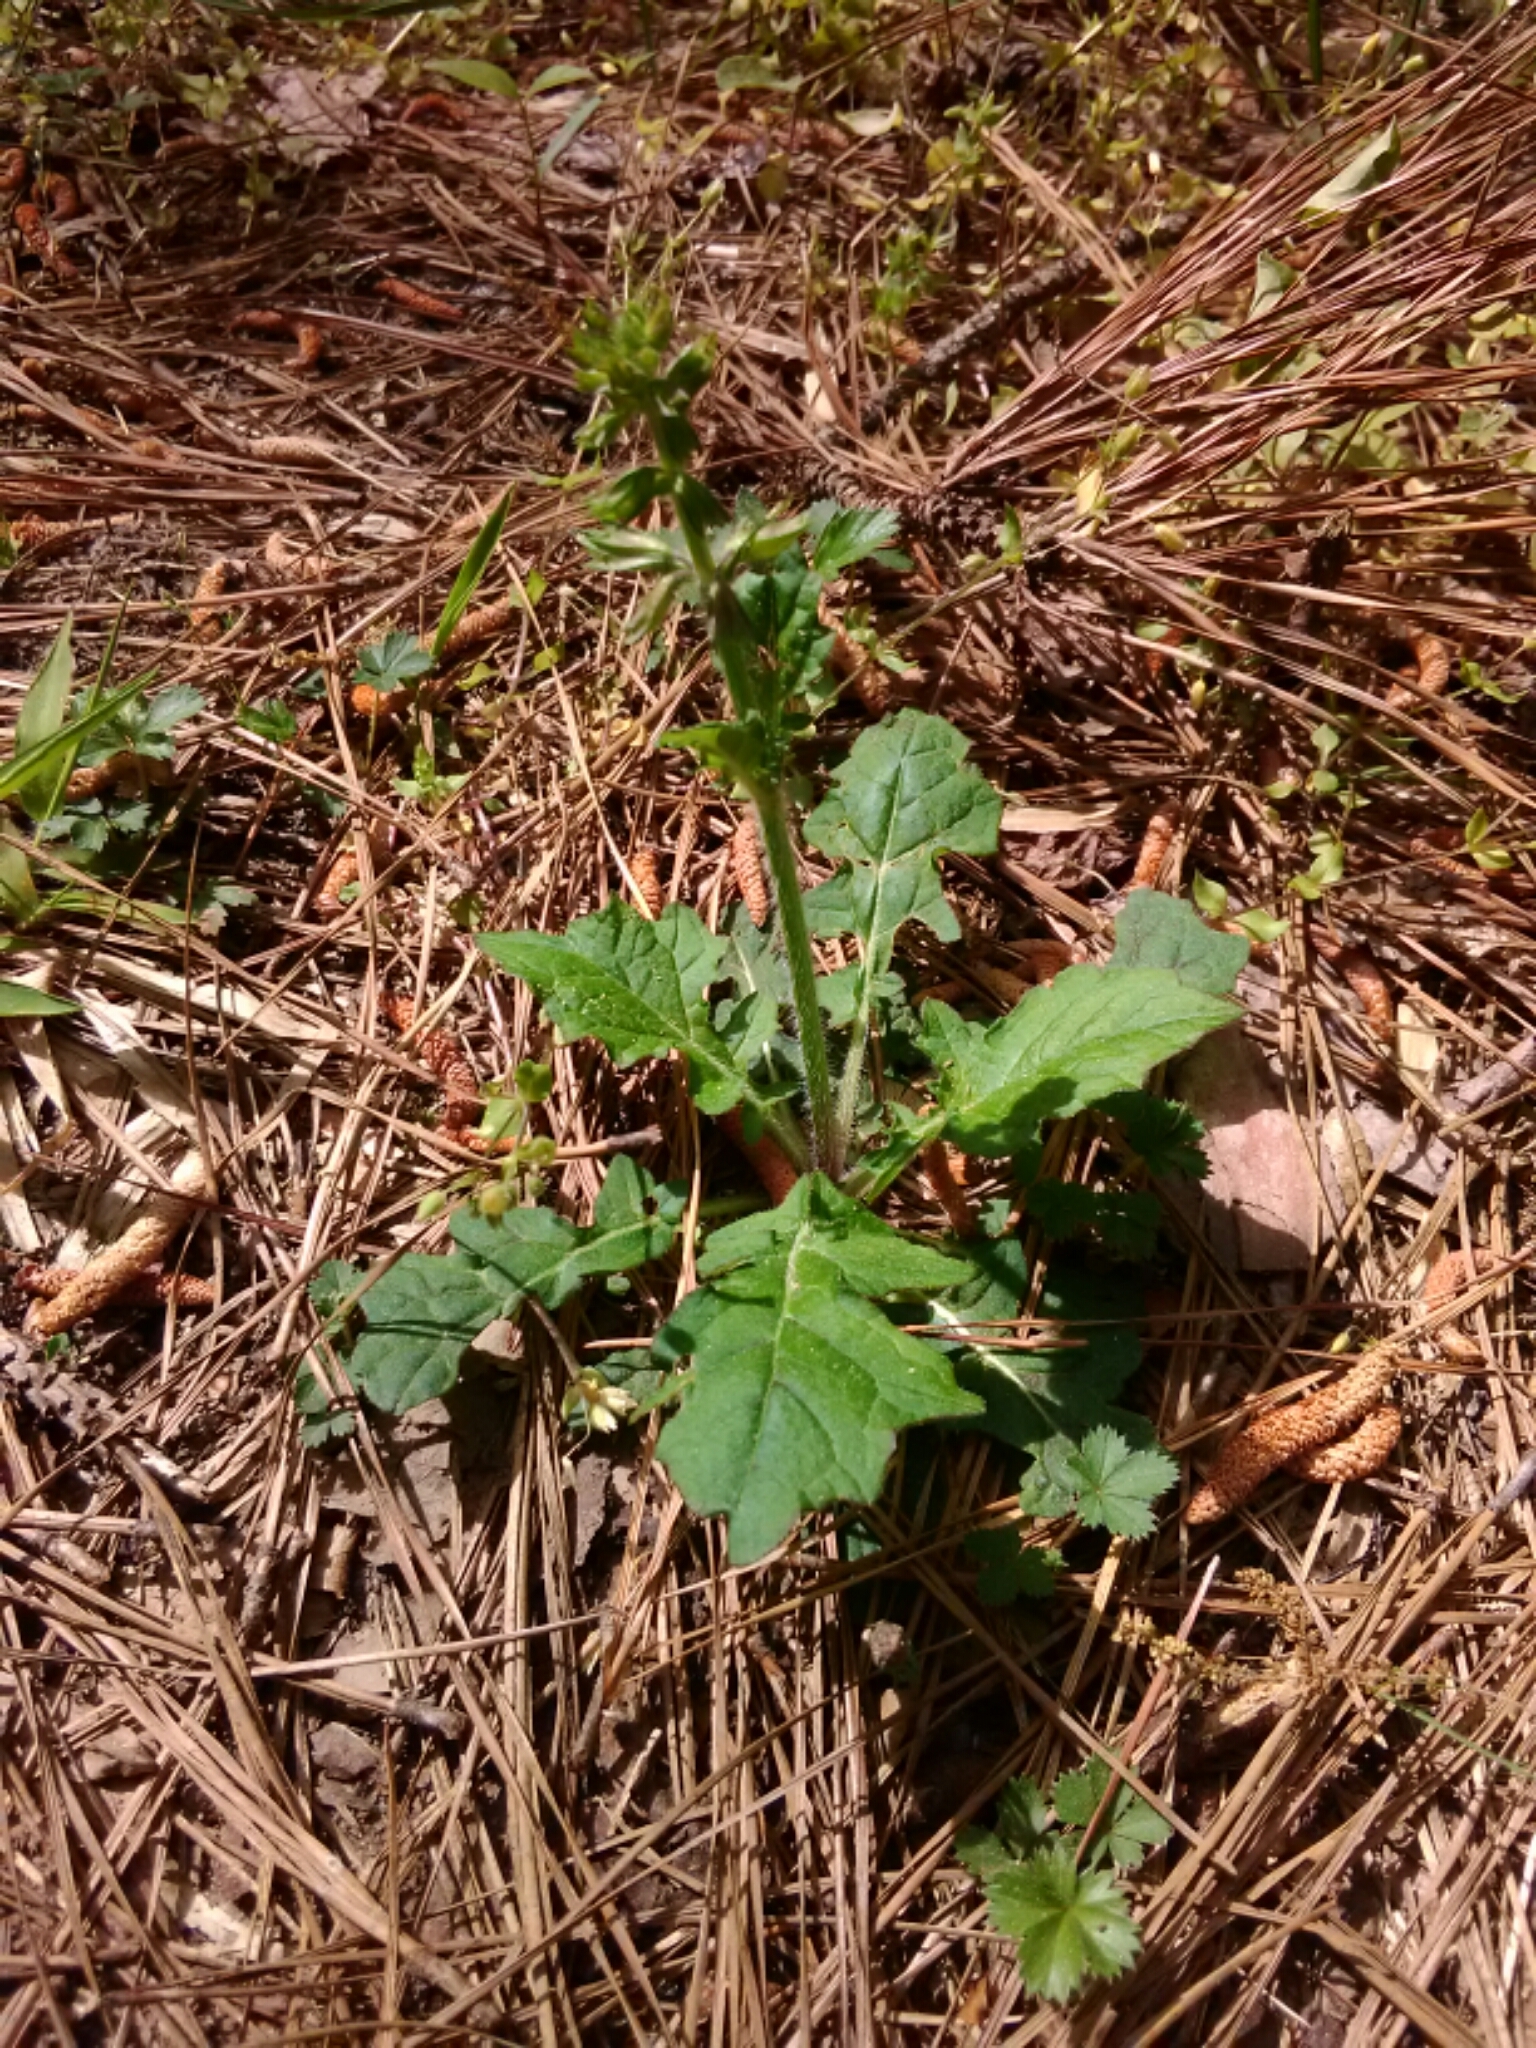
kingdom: Plantae
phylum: Tracheophyta
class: Magnoliopsida
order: Lamiales
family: Lamiaceae
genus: Salvia
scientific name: Salvia lyrata
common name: Cancerweed
